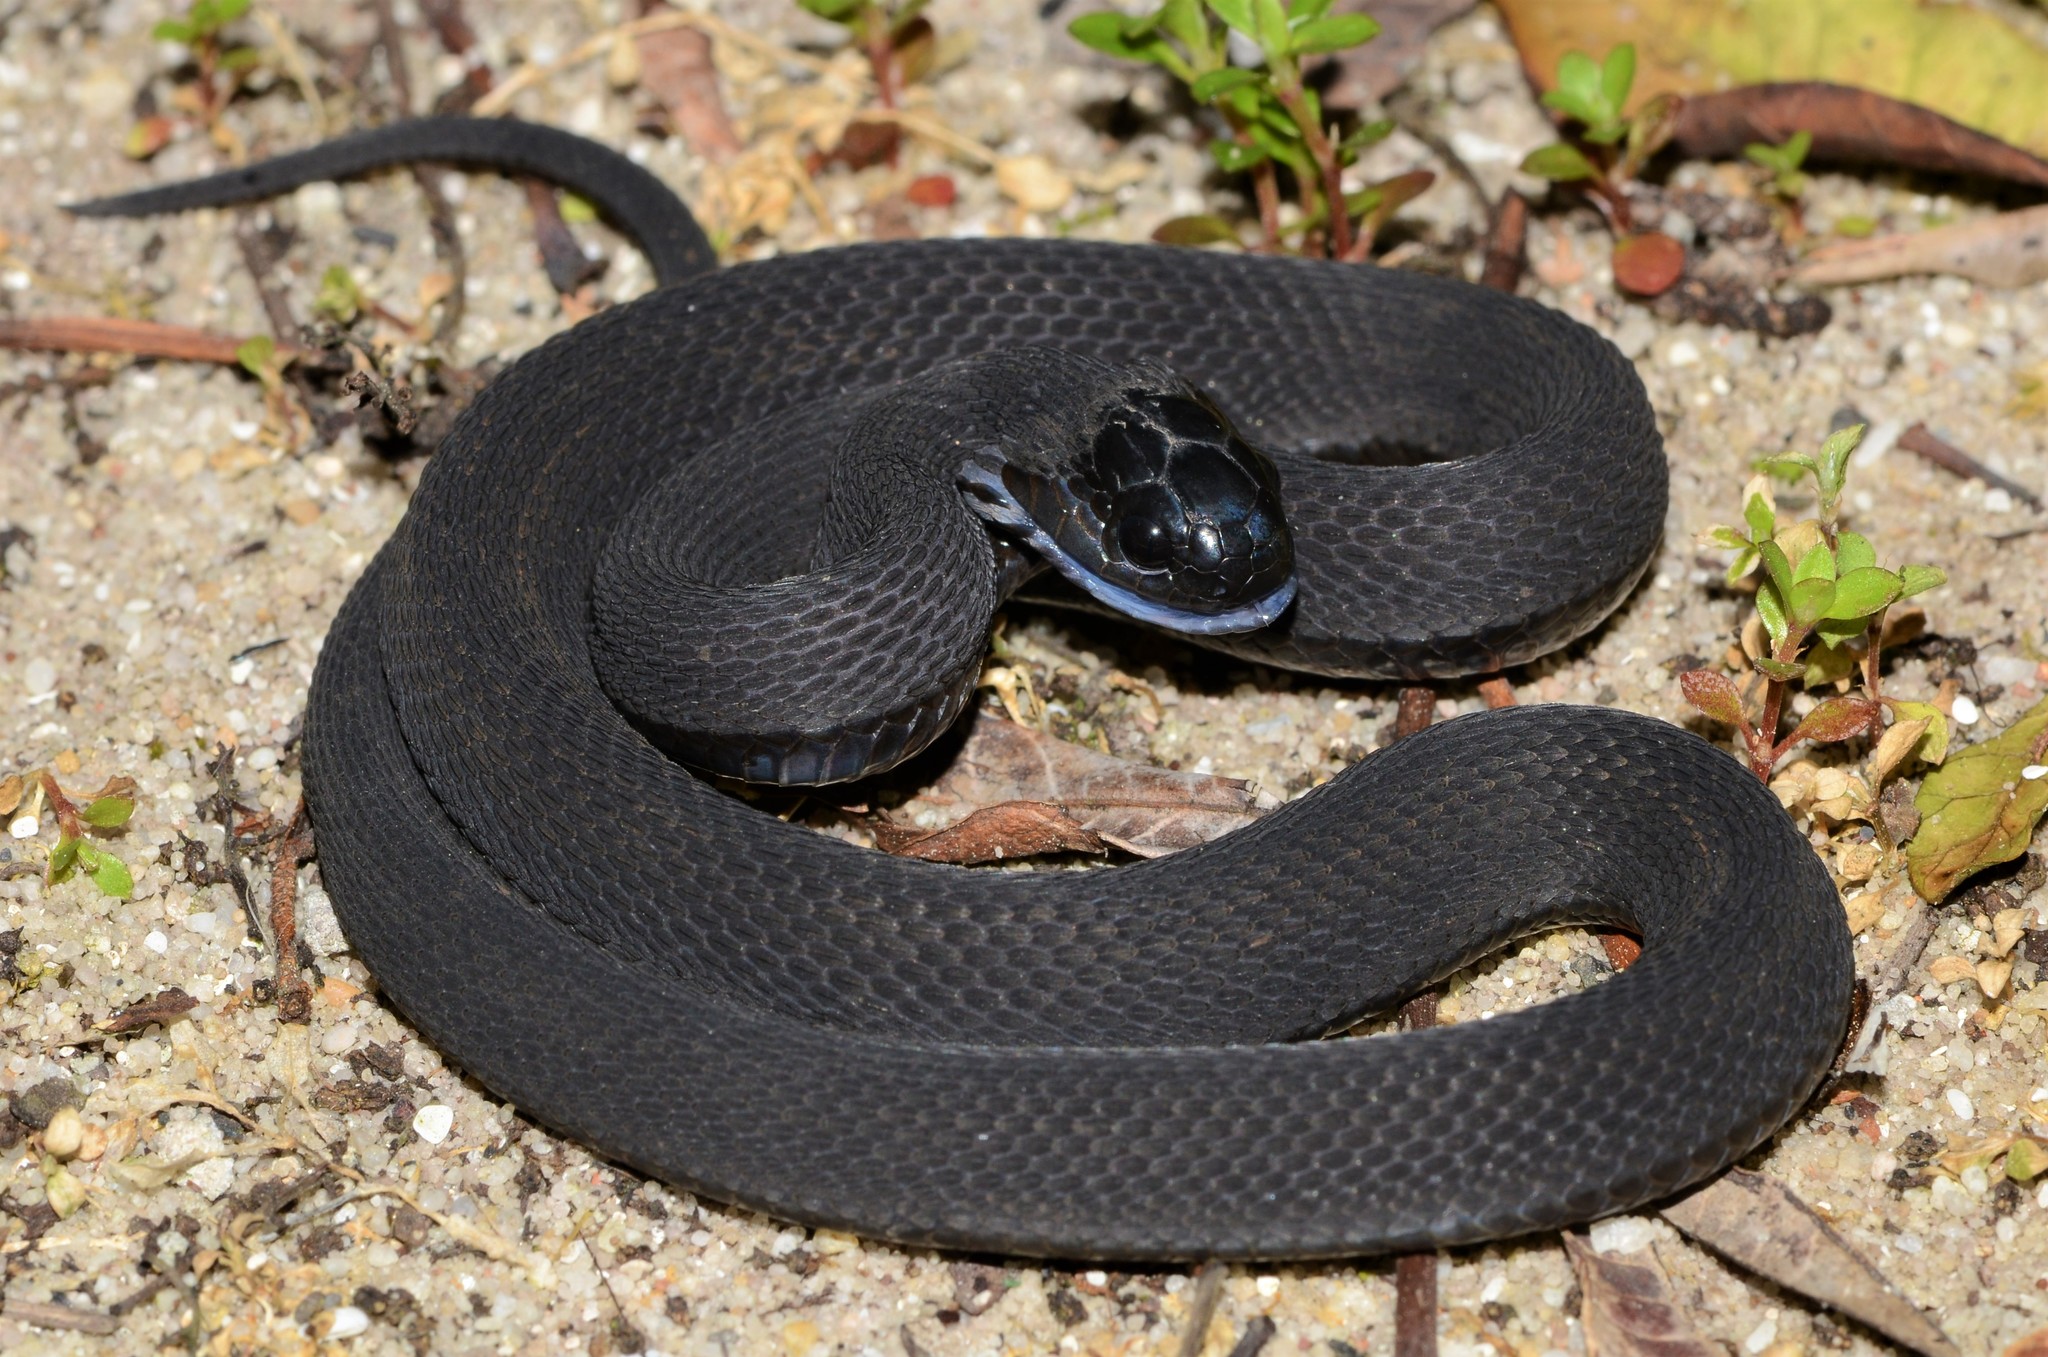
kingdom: Animalia
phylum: Chordata
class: Squamata
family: Colubridae
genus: Dasypeltis
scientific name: Dasypeltis atra
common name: African egg-eating snake
